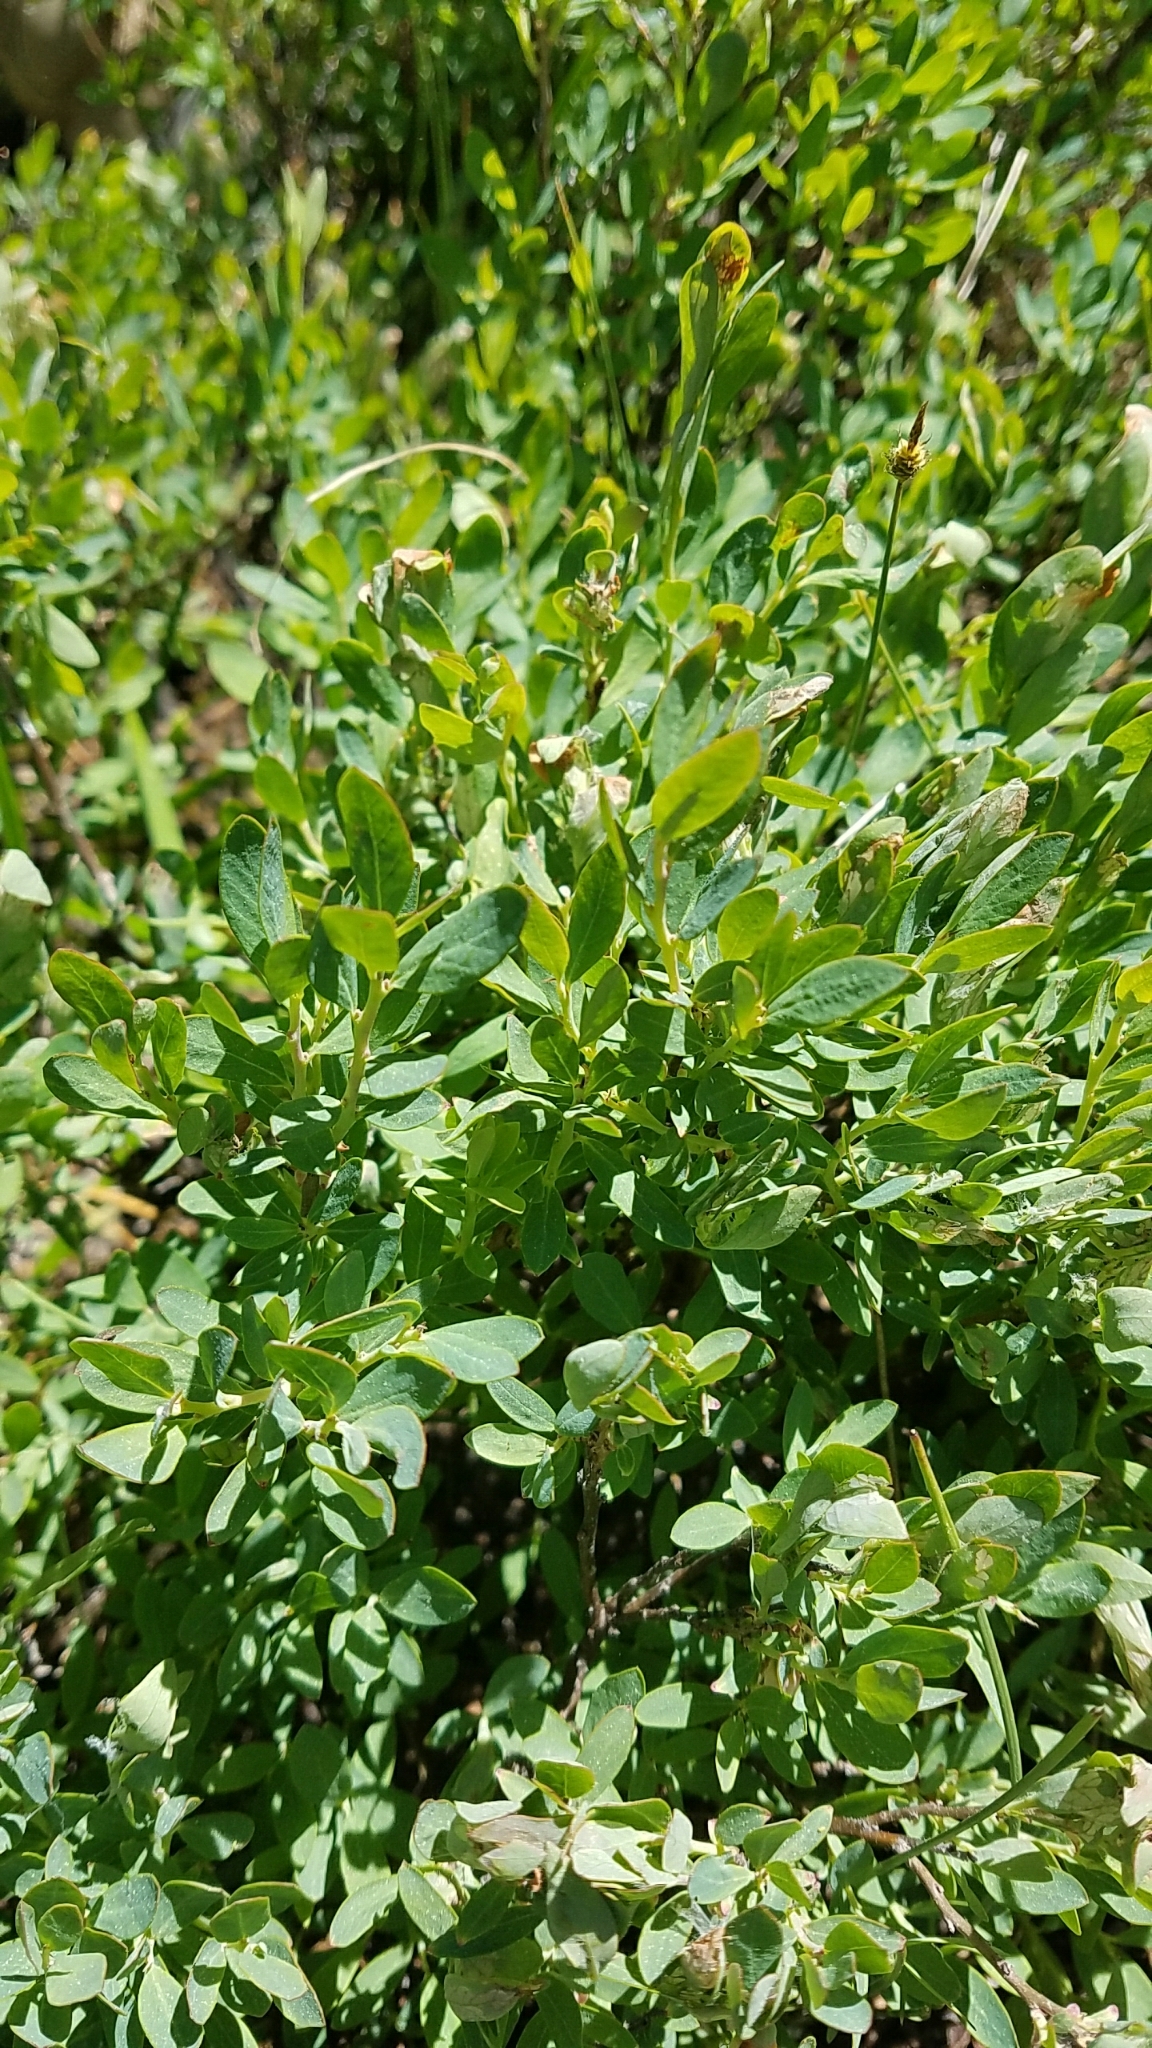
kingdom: Plantae
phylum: Tracheophyta
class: Magnoliopsida
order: Ericales
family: Ericaceae
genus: Vaccinium
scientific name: Vaccinium uliginosum
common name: Bog bilberry
